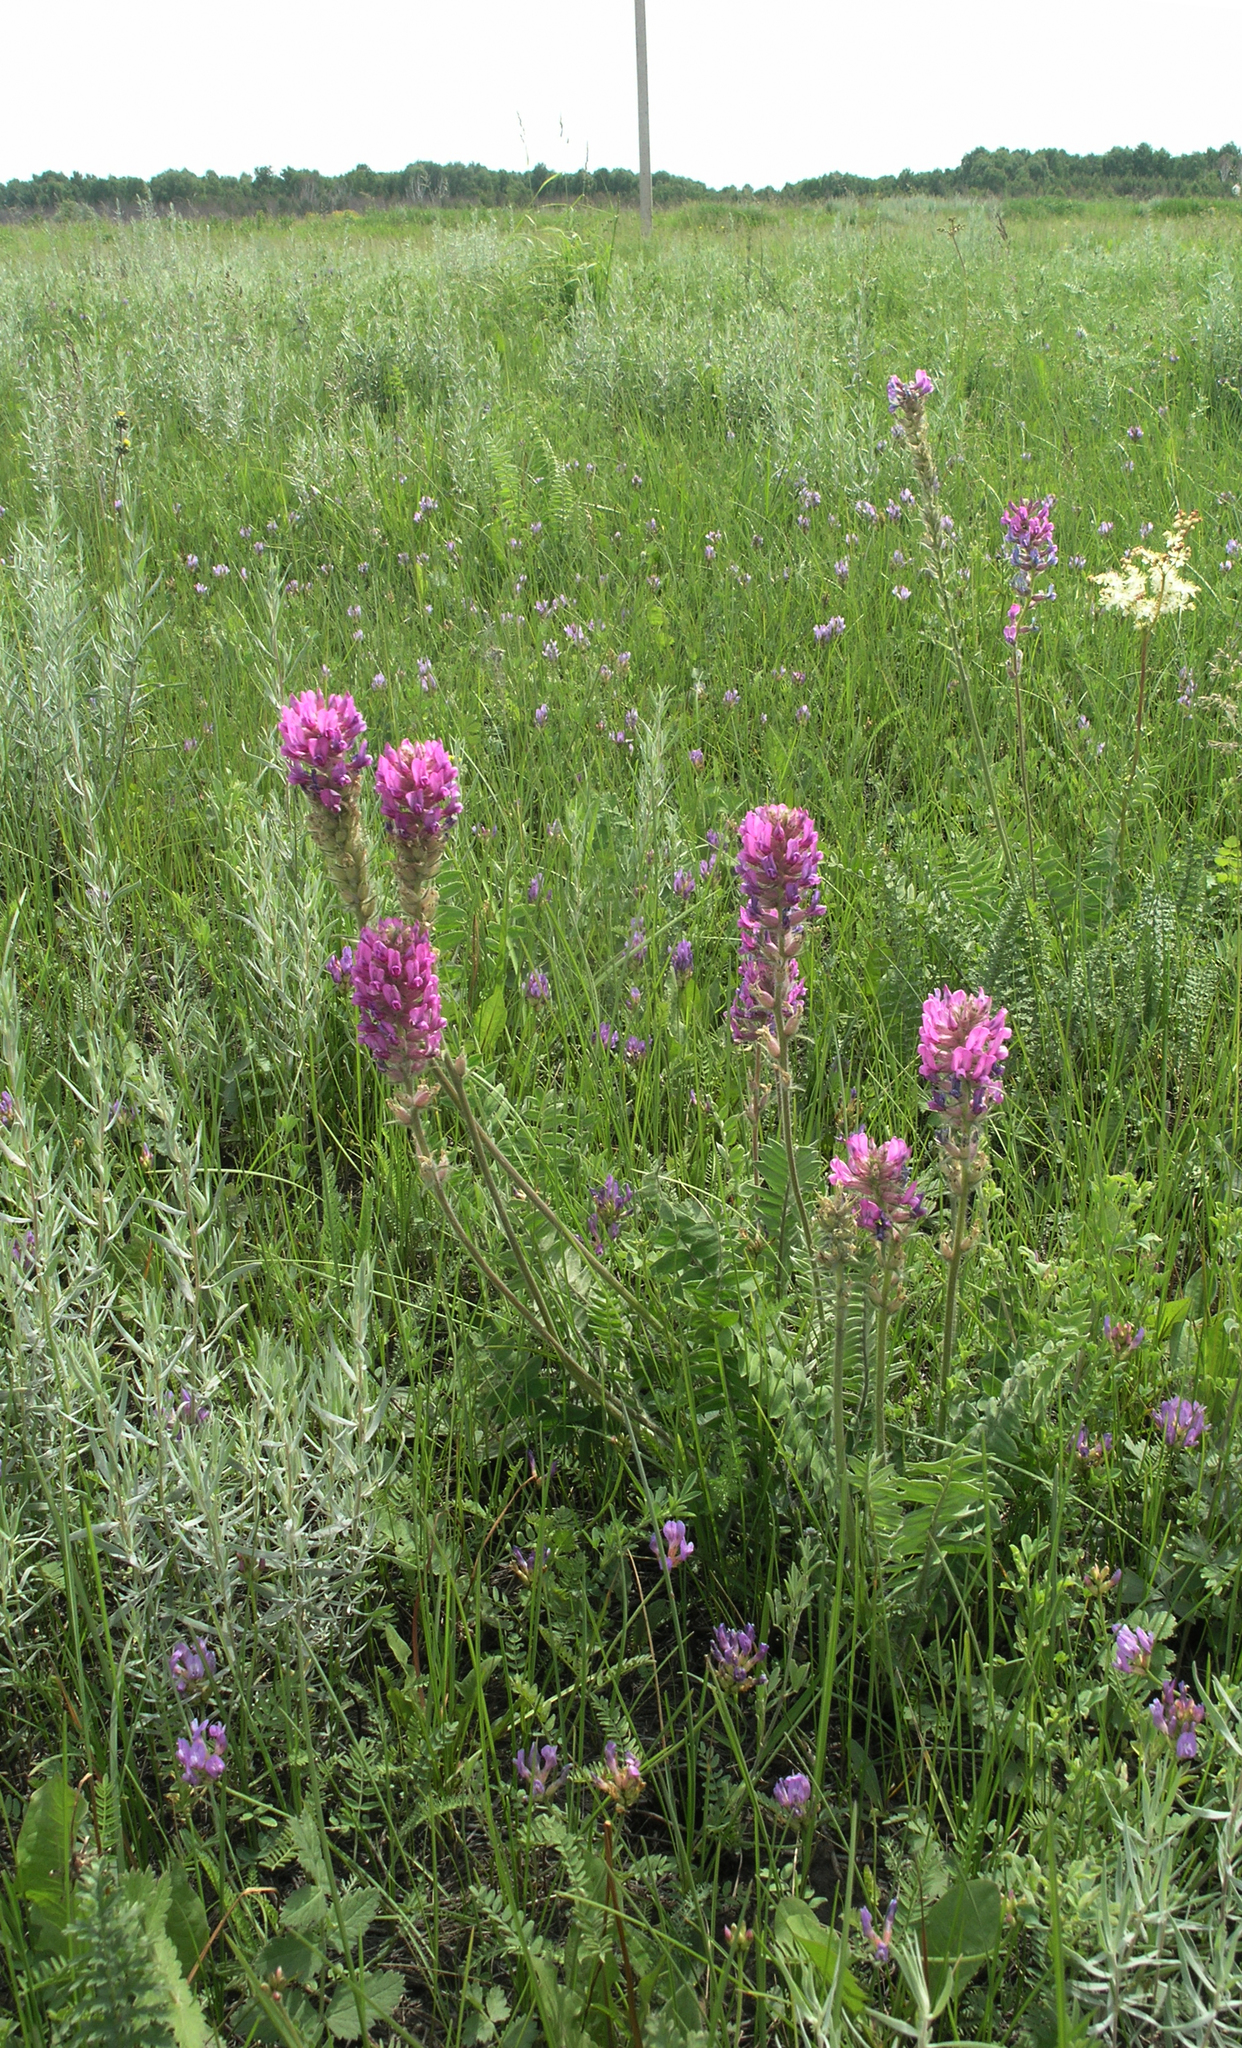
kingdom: Plantae
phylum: Tracheophyta
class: Magnoliopsida
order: Fabales
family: Fabaceae
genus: Oxytropis
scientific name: Oxytropis campanulata
